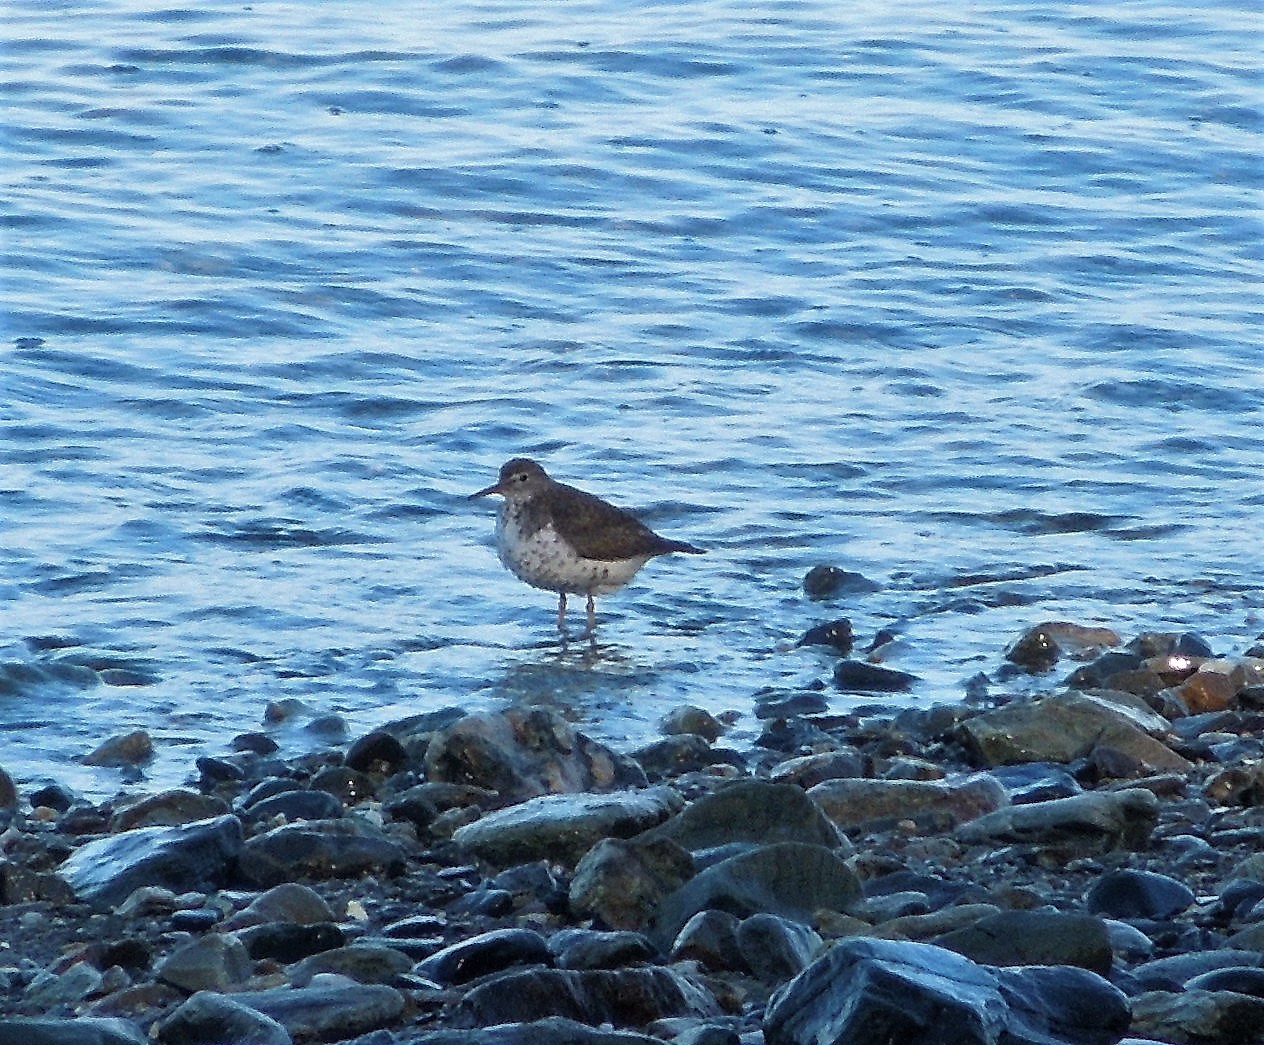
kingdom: Animalia
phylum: Chordata
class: Aves
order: Charadriiformes
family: Scolopacidae
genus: Actitis
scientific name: Actitis macularius
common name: Spotted sandpiper
